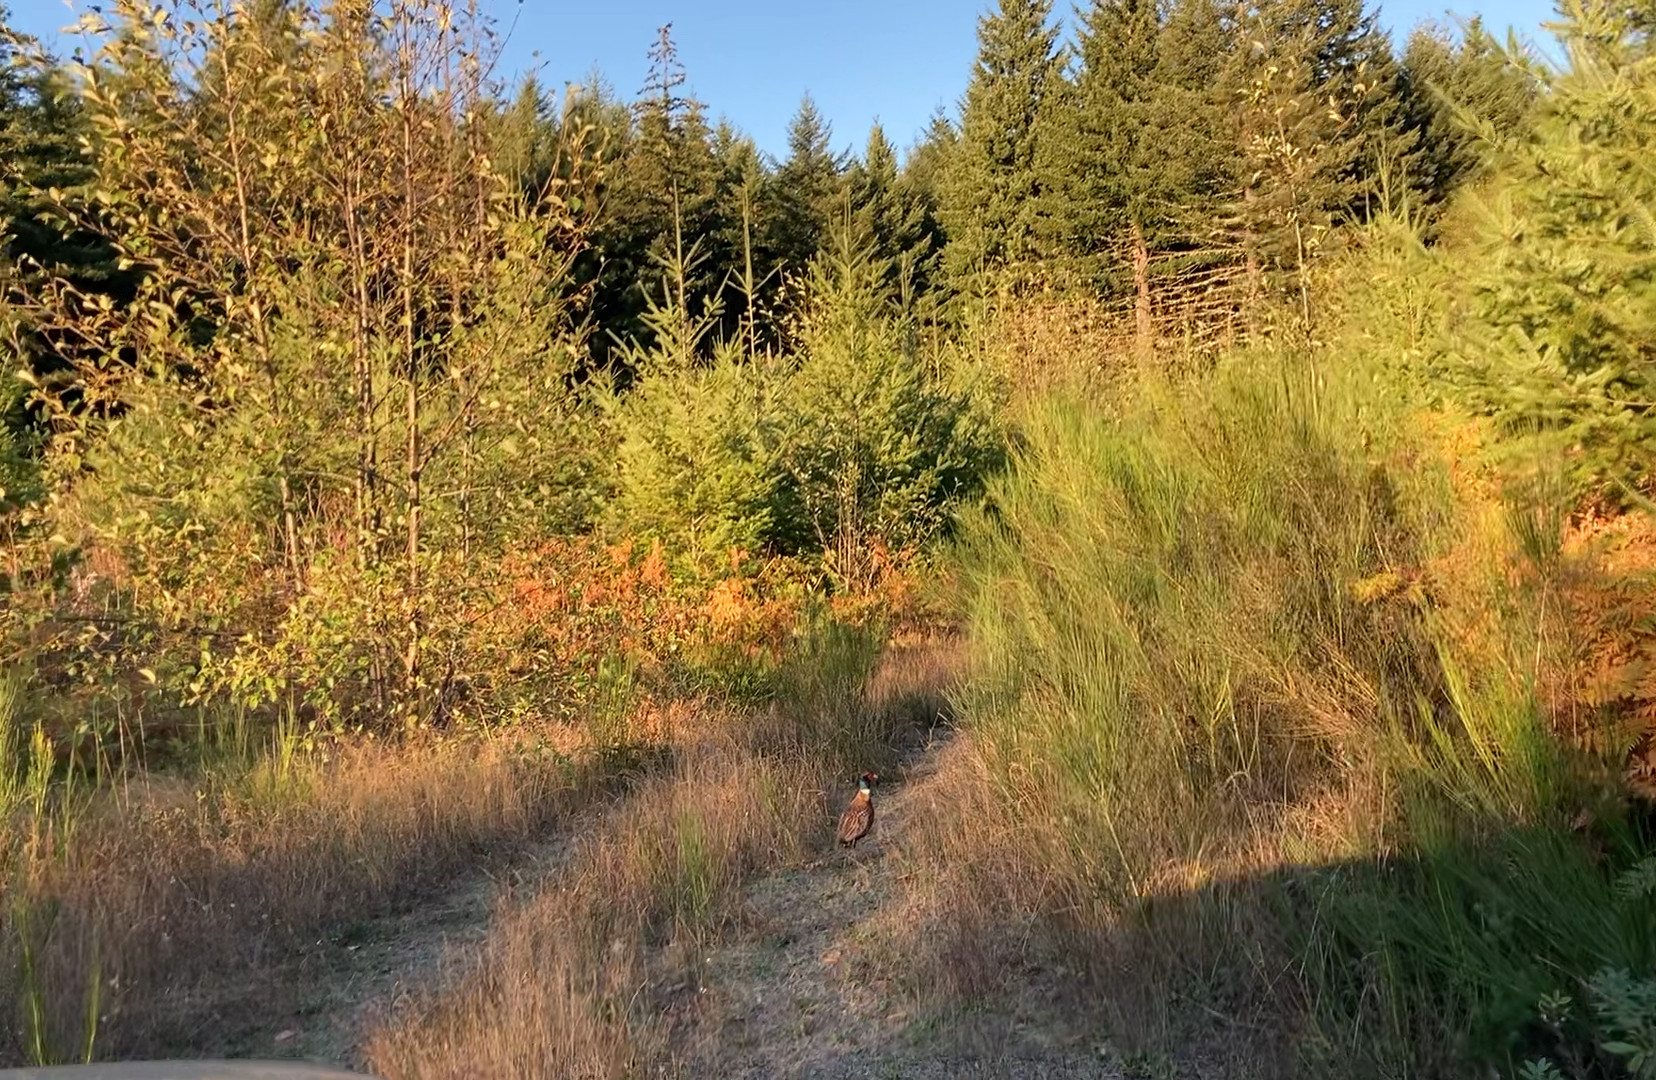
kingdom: Animalia
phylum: Chordata
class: Aves
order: Galliformes
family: Phasianidae
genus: Phasianus
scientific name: Phasianus colchicus
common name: Common pheasant
